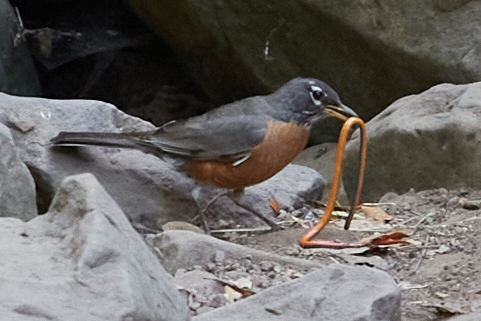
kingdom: Animalia
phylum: Chordata
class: Aves
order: Passeriformes
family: Turdidae
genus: Turdus
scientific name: Turdus migratorius
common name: American robin
